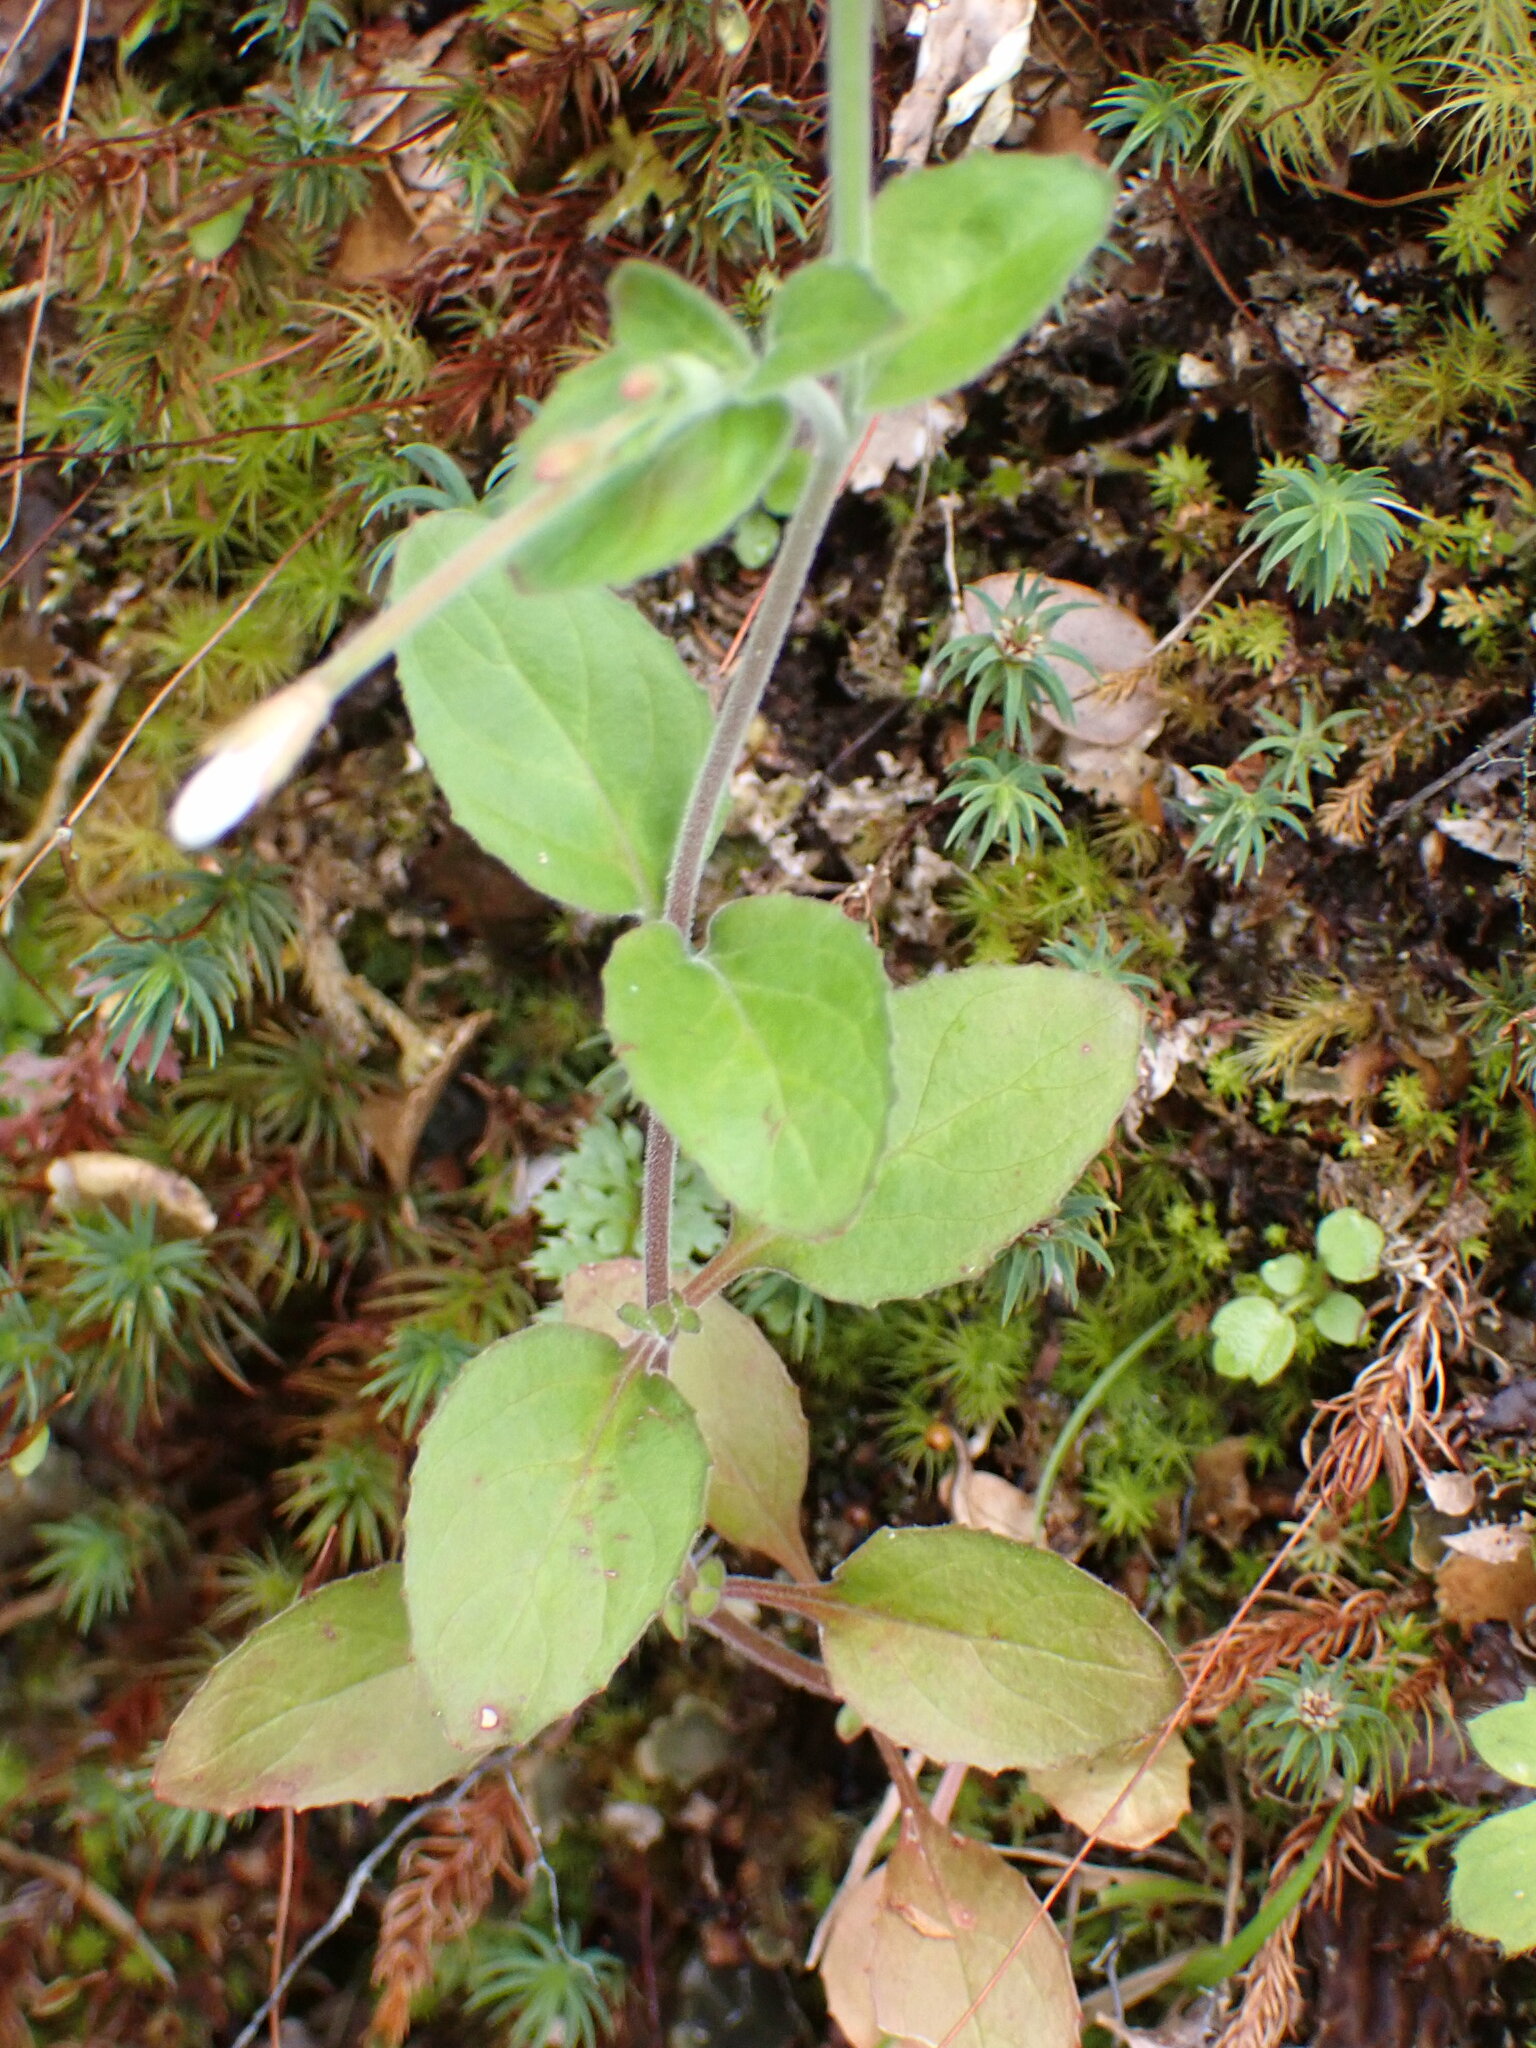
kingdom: Plantae
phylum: Tracheophyta
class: Magnoliopsida
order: Myrtales
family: Onagraceae
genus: Epilobium
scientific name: Epilobium pubens
